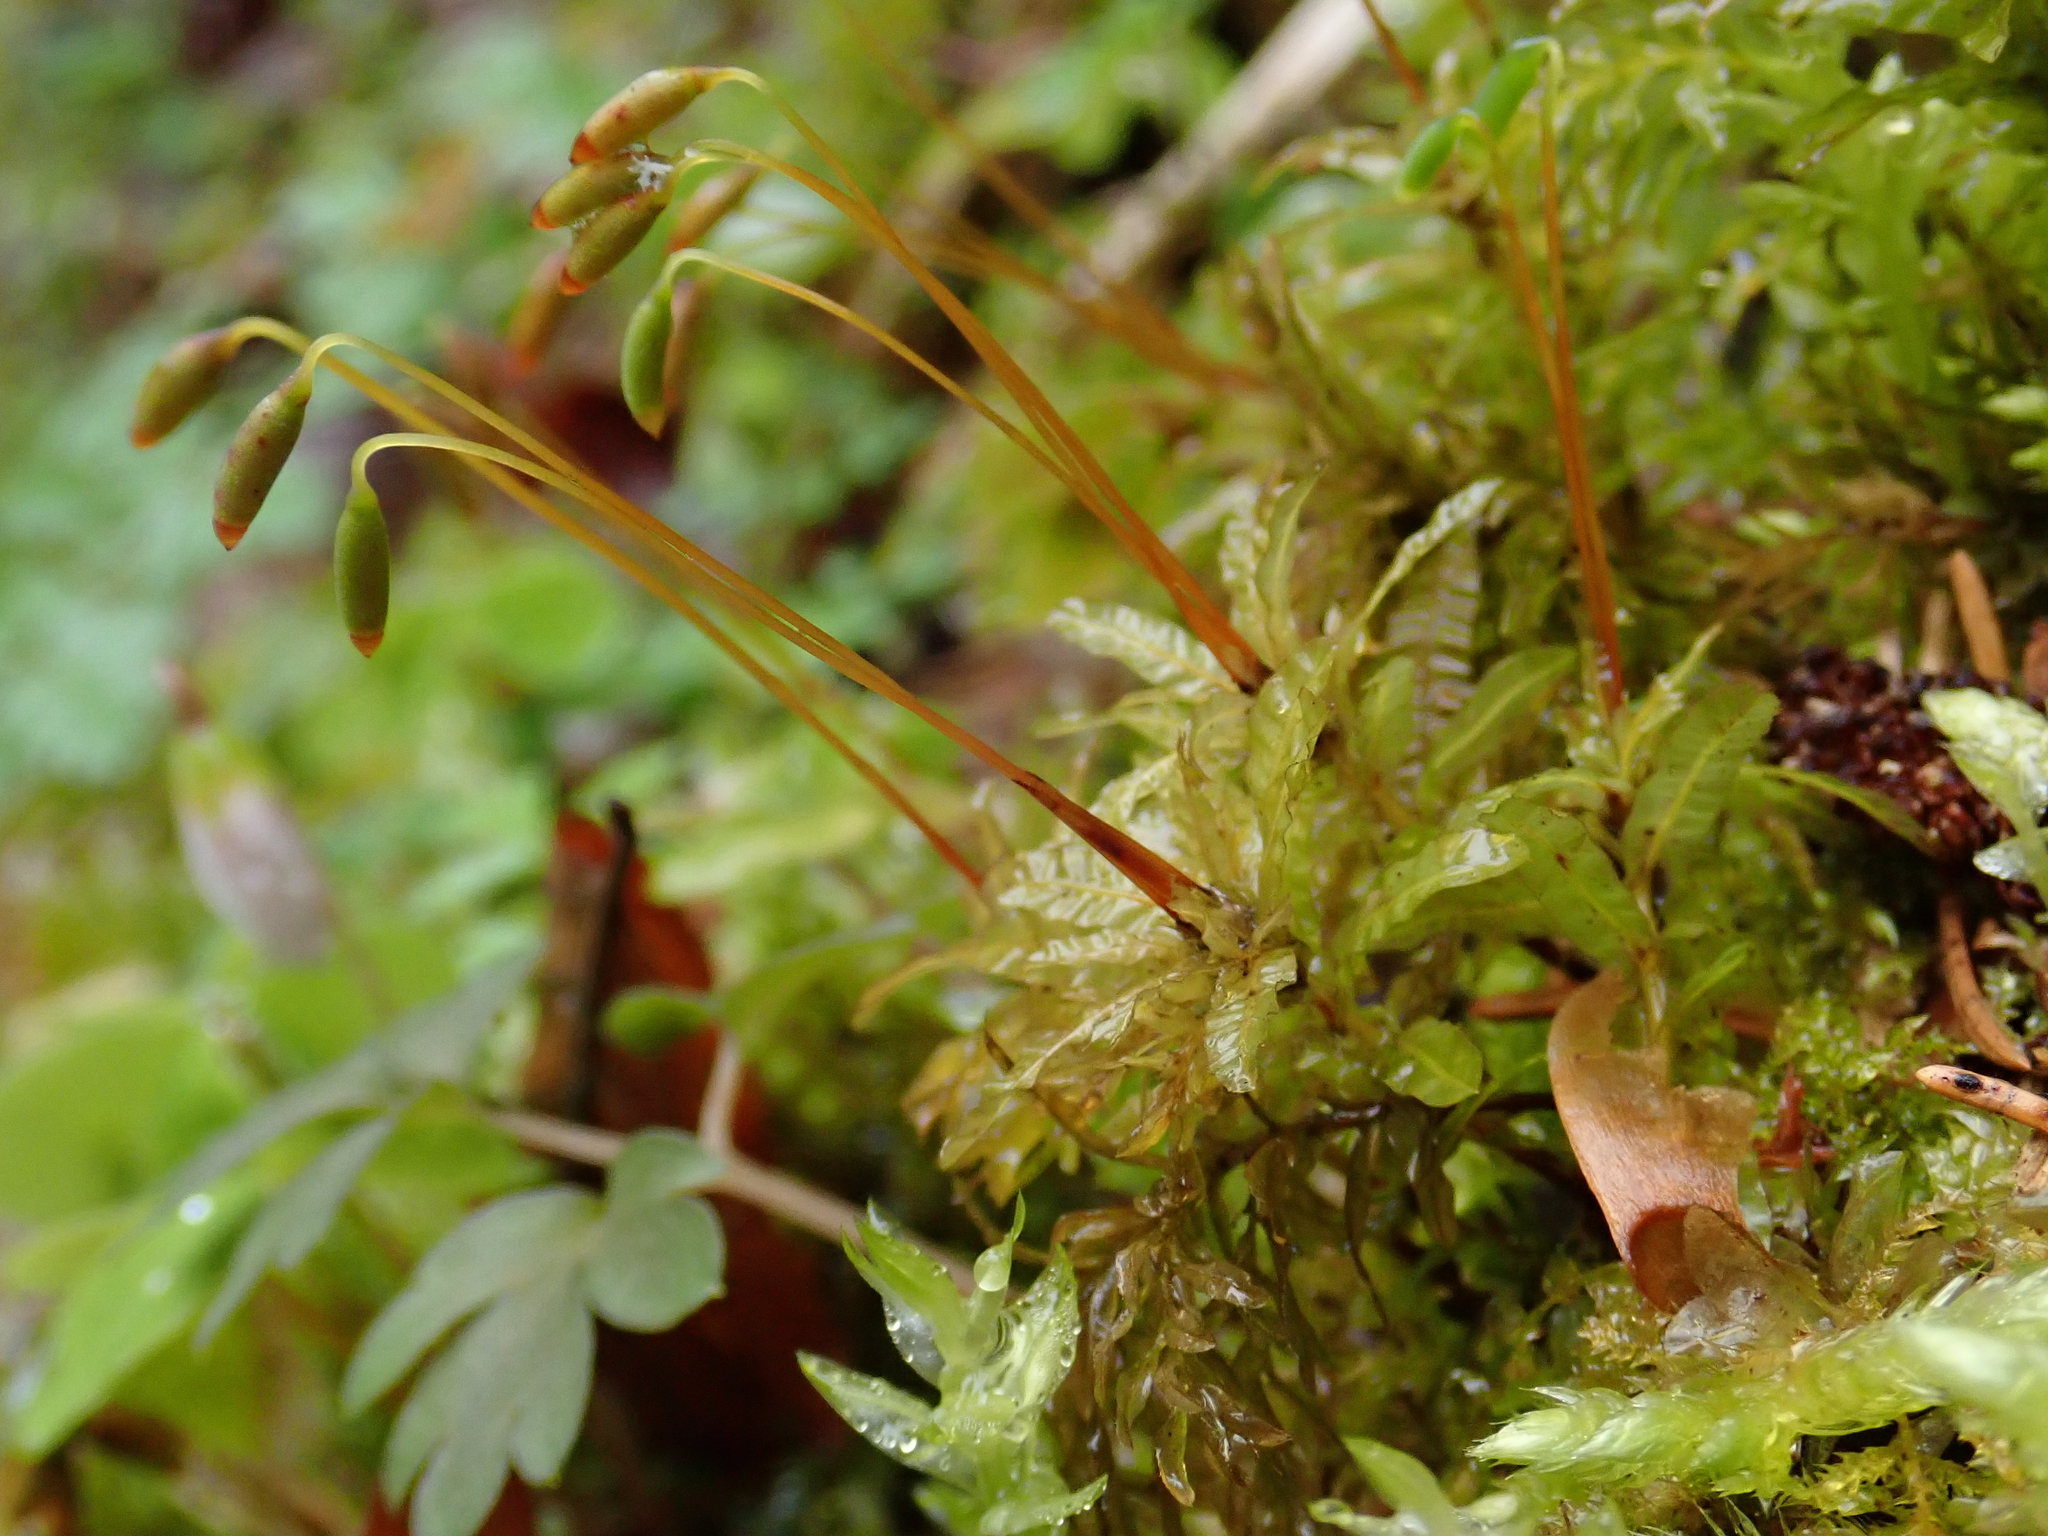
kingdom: Plantae
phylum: Bryophyta
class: Bryopsida
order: Bryales
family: Mniaceae
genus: Plagiomnium
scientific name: Plagiomnium undulatum
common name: Hart's-tongue thyme-moss
